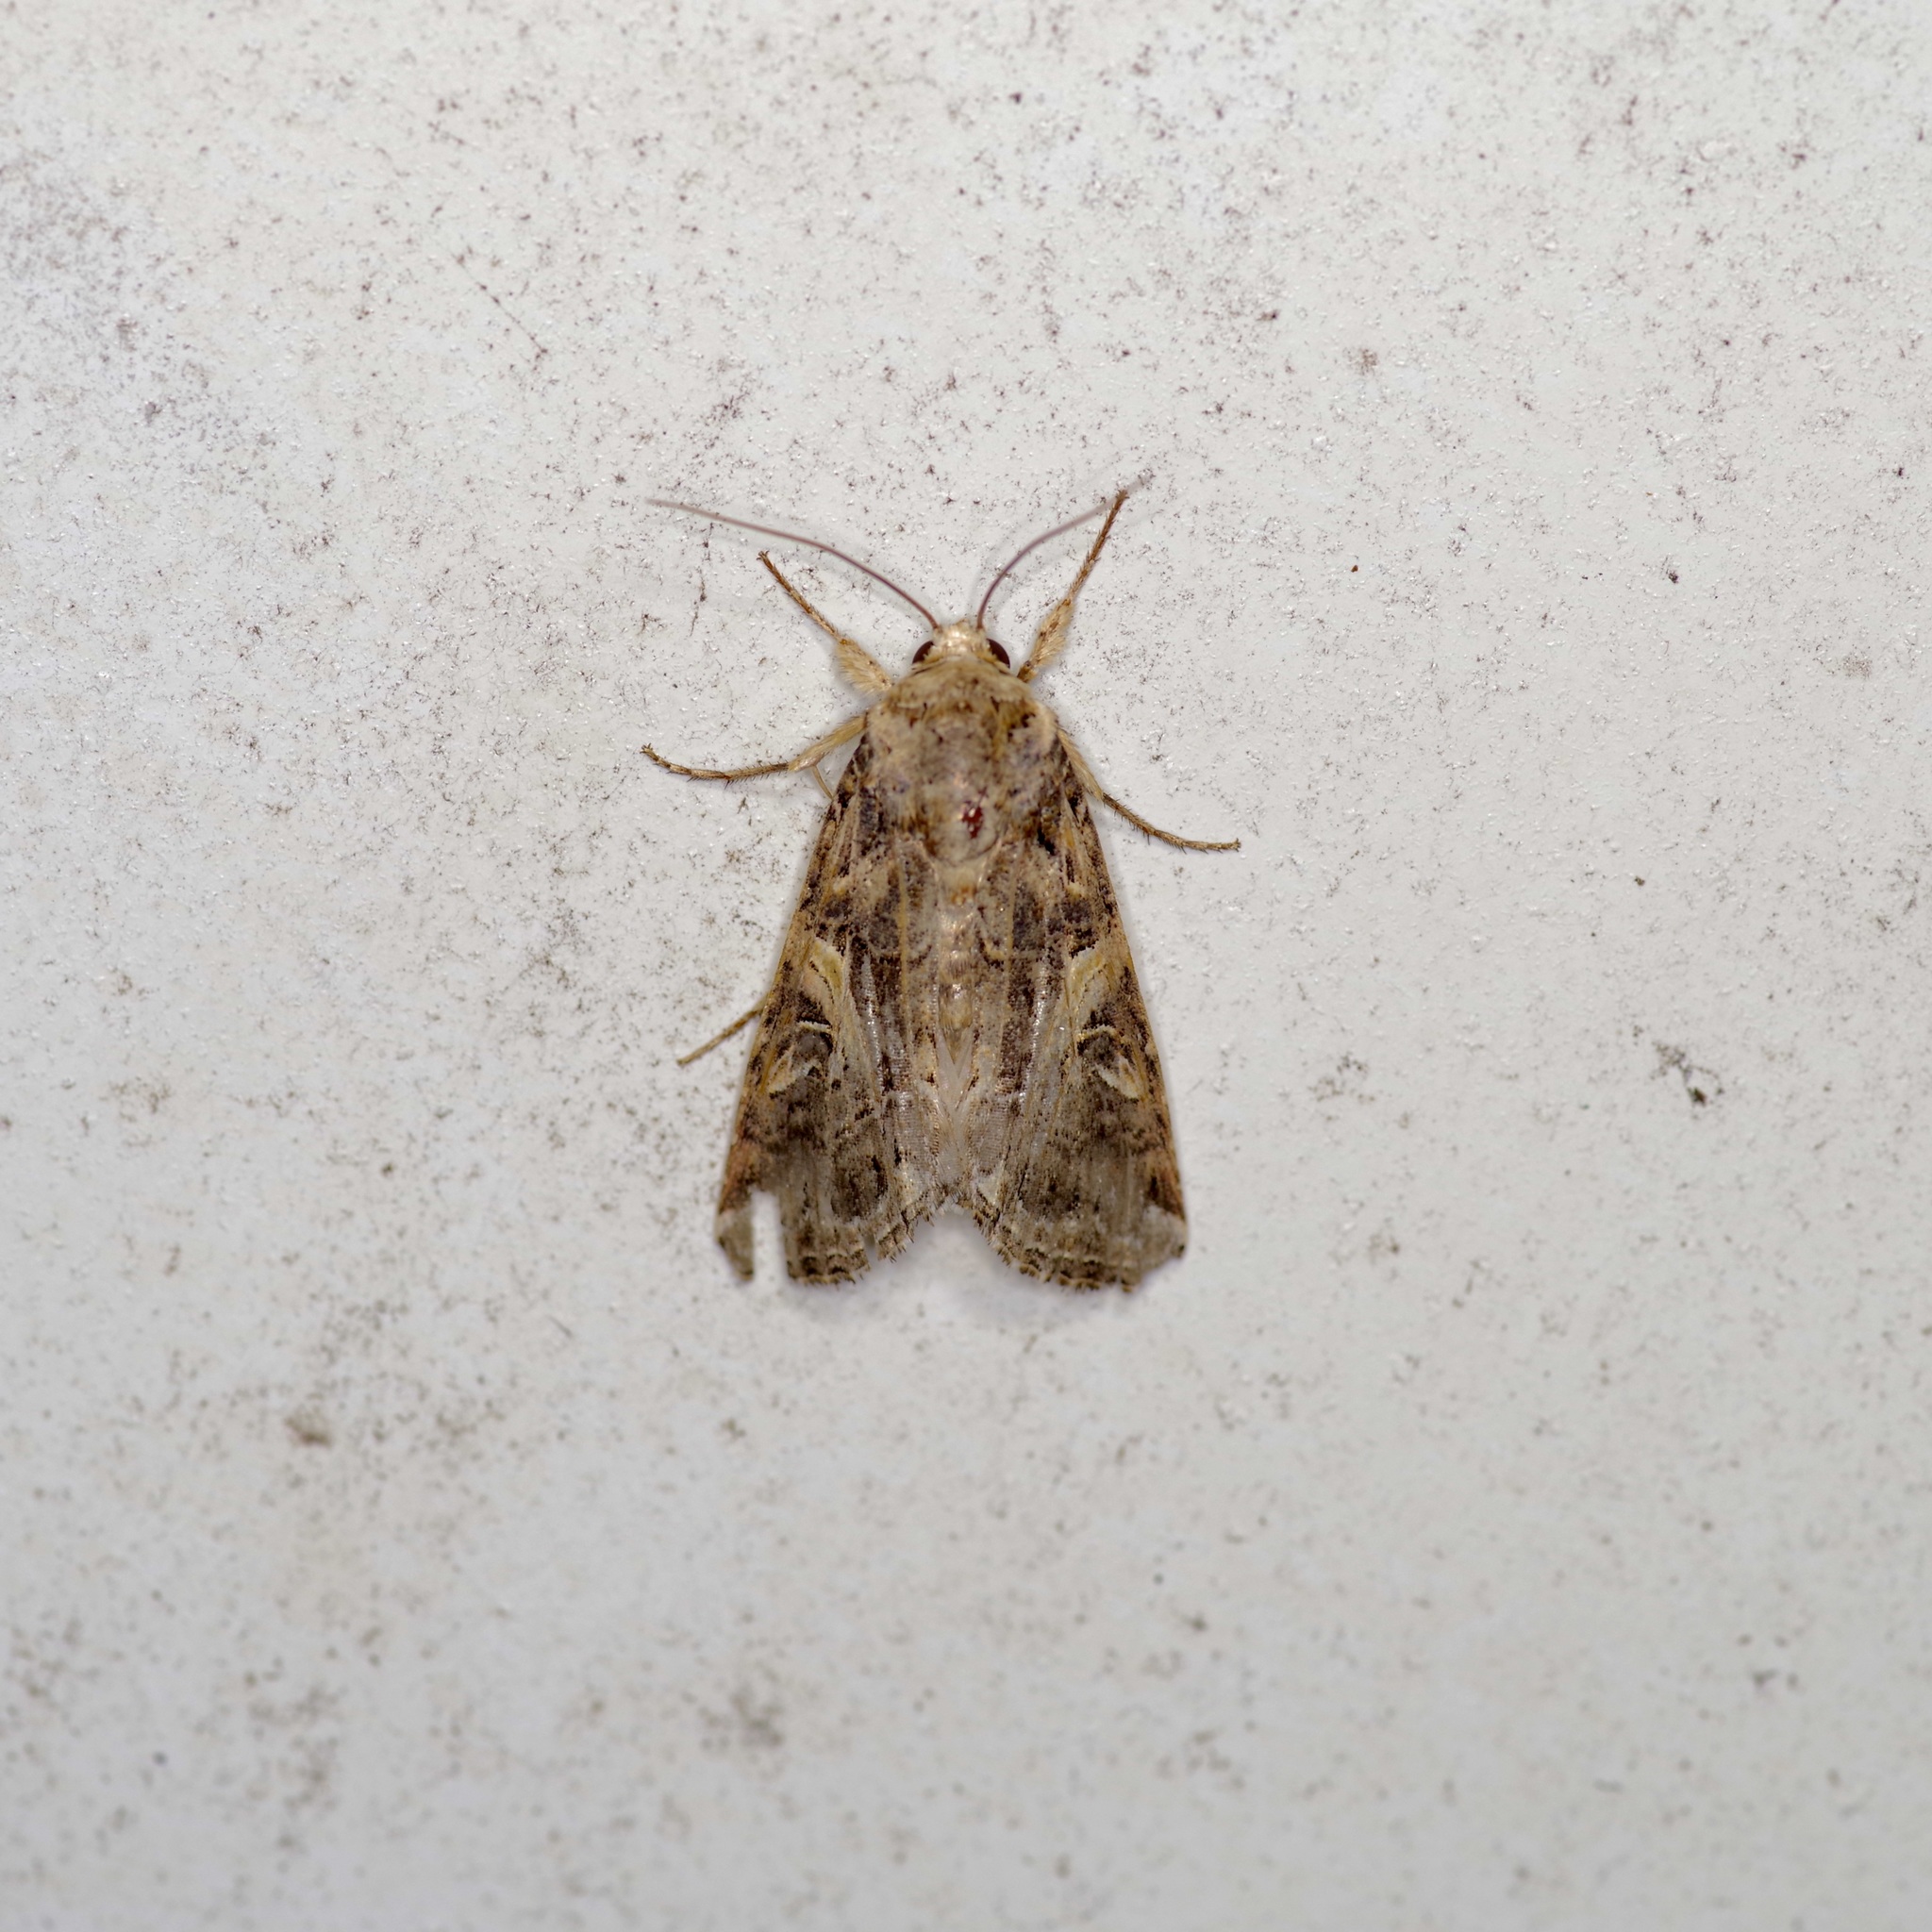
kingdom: Animalia
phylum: Arthropoda
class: Insecta
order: Lepidoptera
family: Noctuidae
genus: Spodoptera
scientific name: Spodoptera ornithogalli
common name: Yellow-striped armyworm
